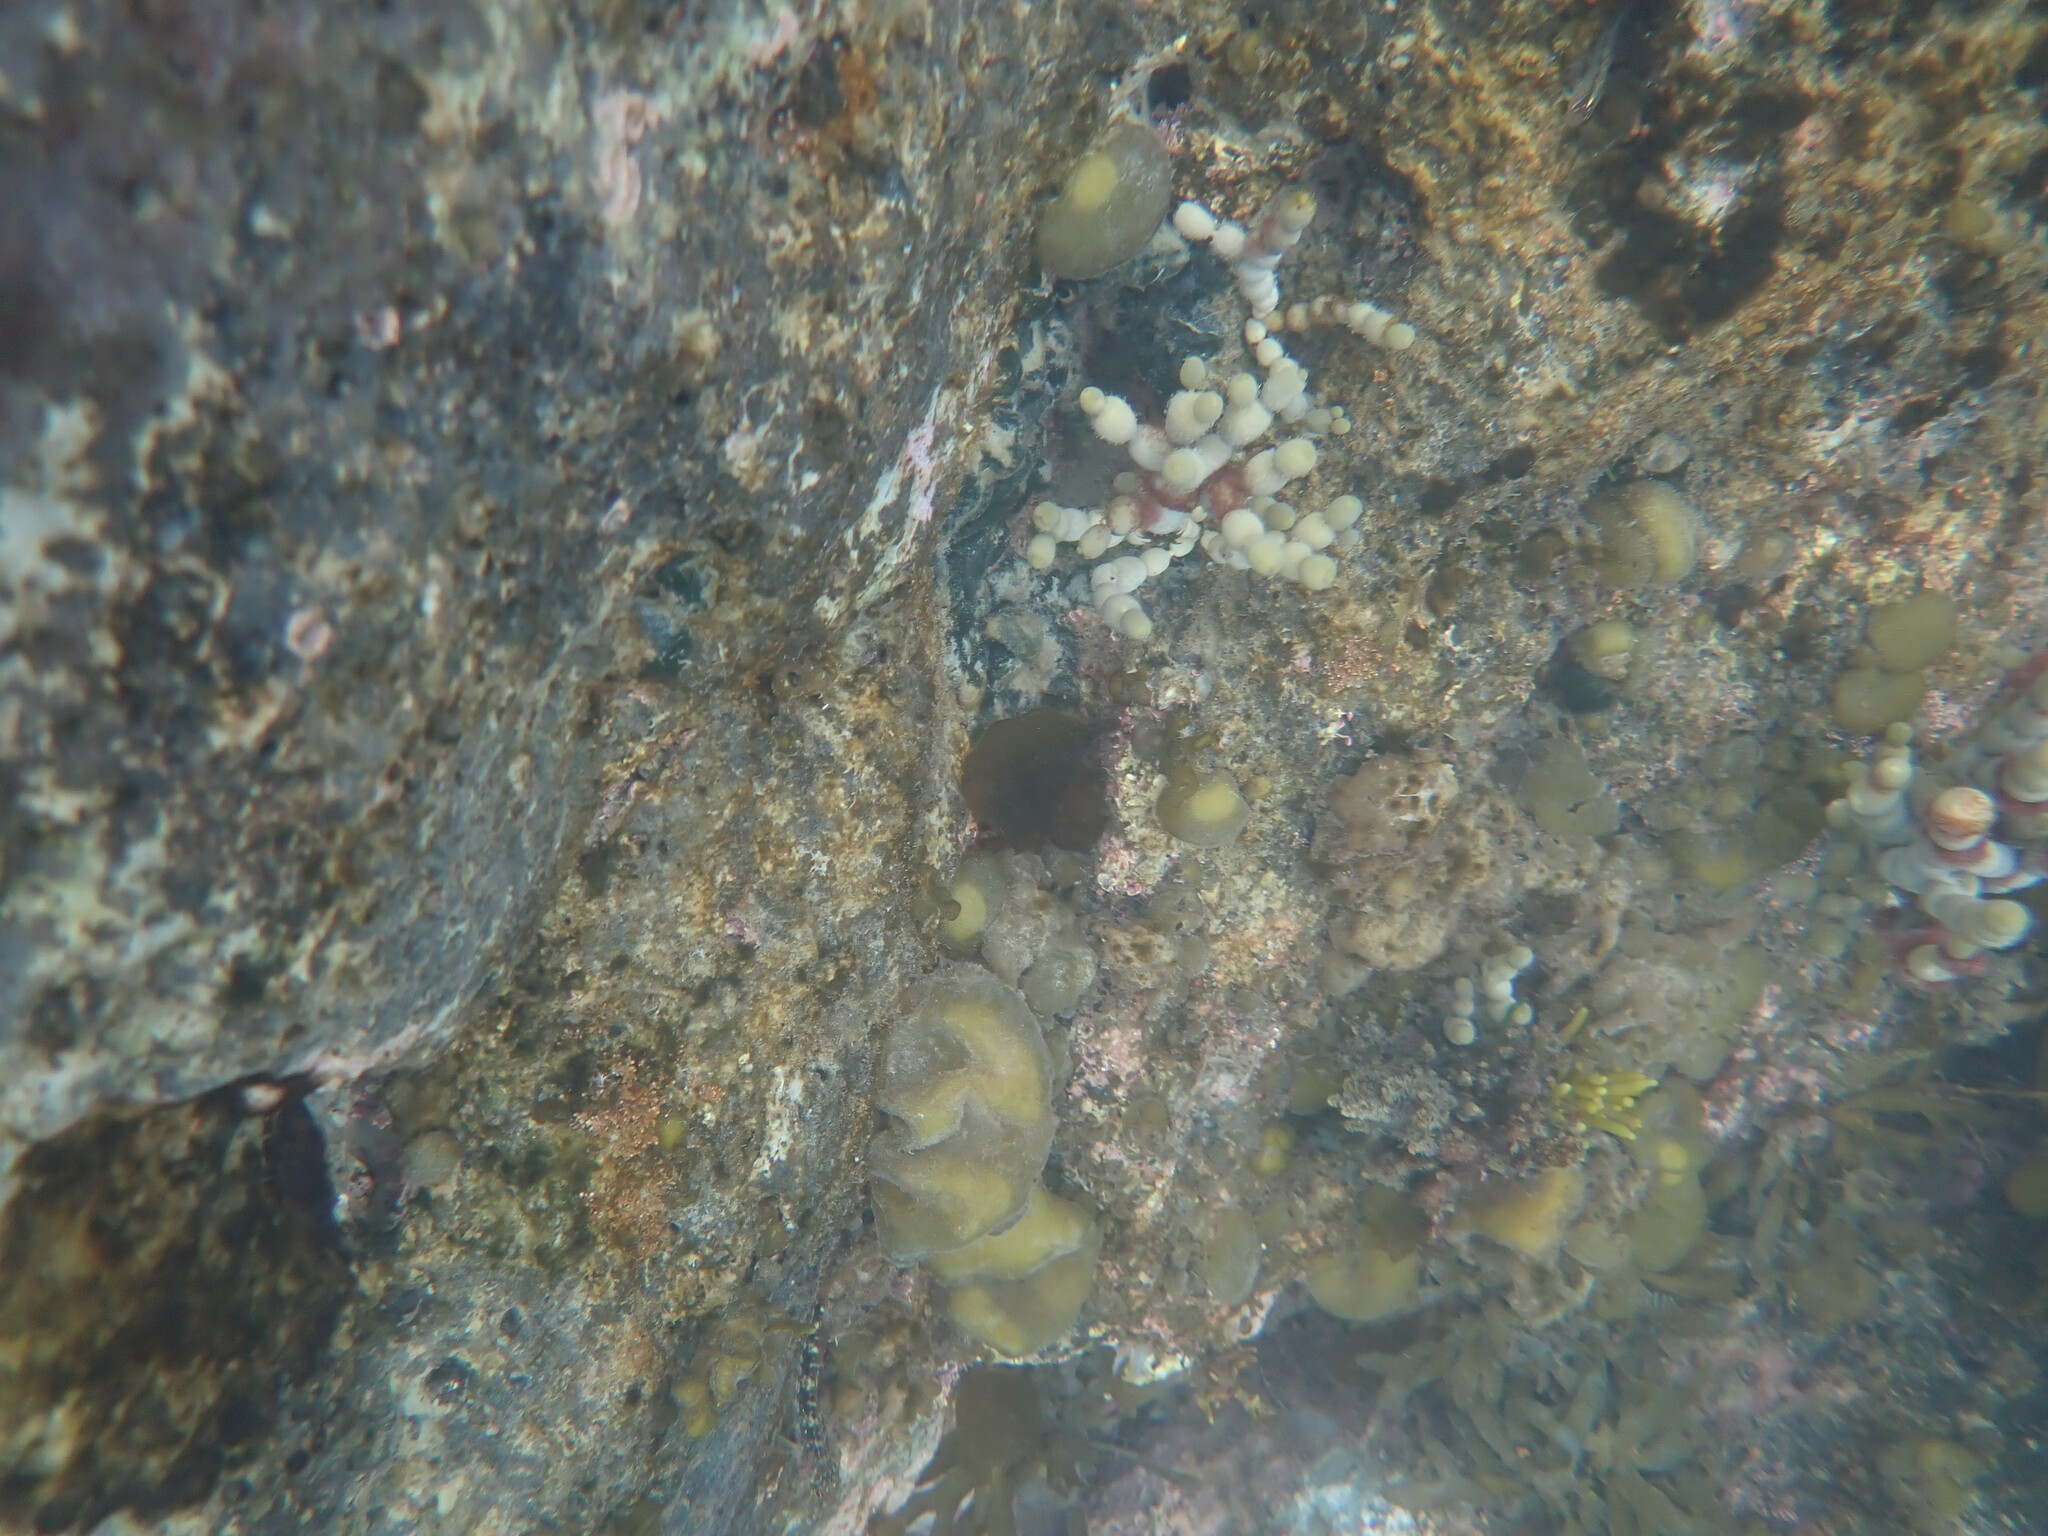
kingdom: Chromista
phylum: Ochrophyta
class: Phaeophyceae
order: Scytosiphonales
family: Scytosiphonaceae
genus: Colpomenia
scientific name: Colpomenia sinuosa
